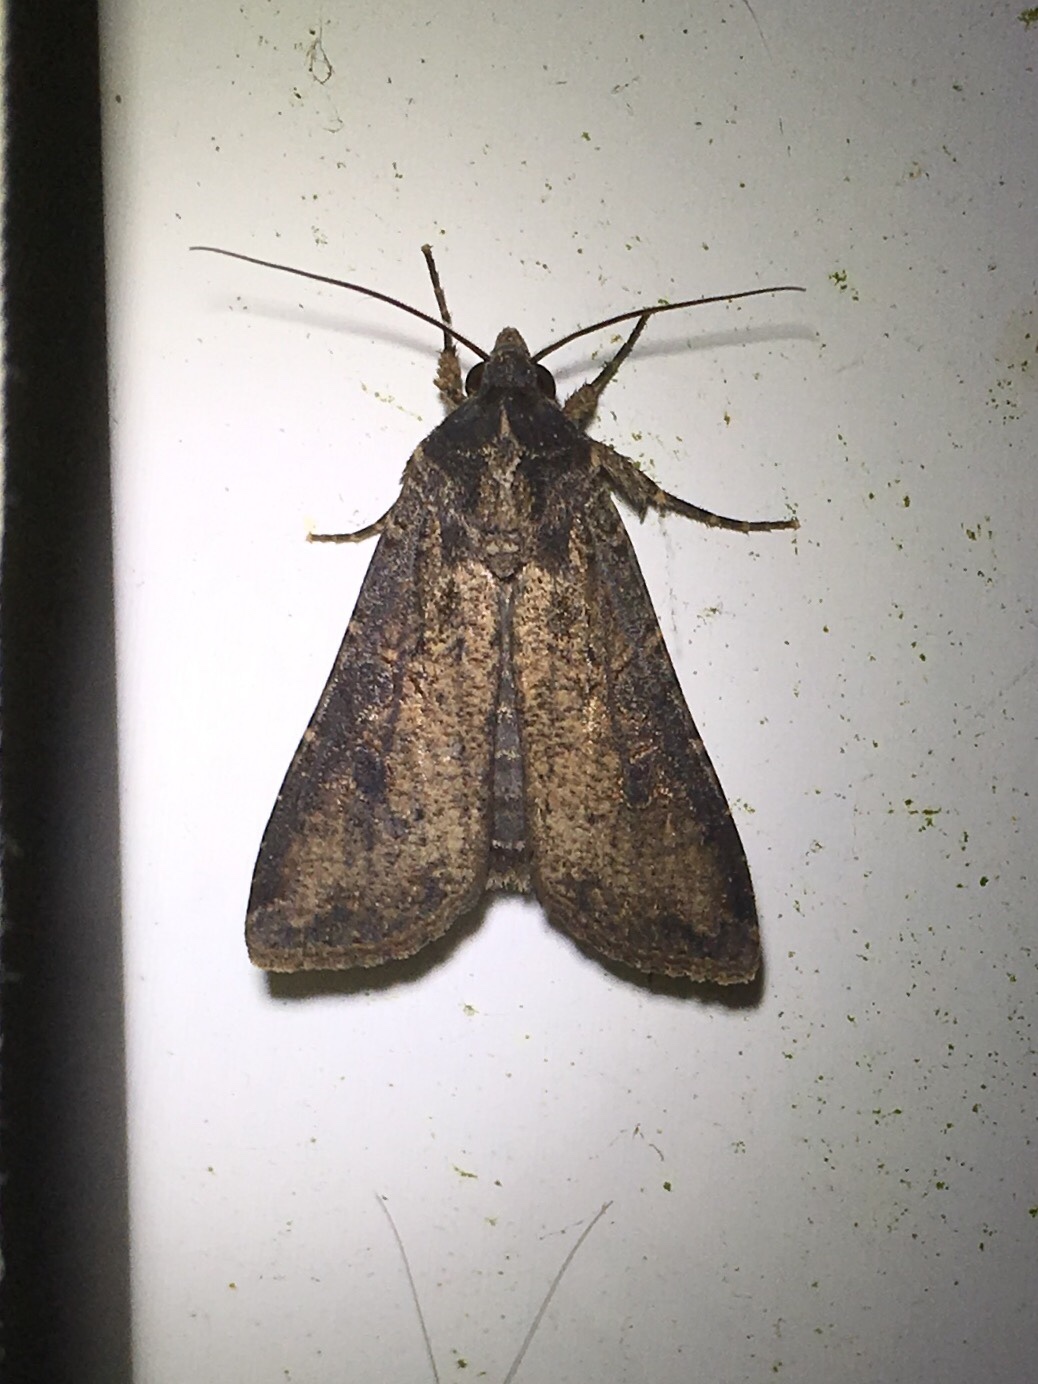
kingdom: Animalia
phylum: Arthropoda
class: Insecta
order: Lepidoptera
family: Noctuidae
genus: Peridroma
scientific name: Peridroma saucia
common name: Pearly underwing
